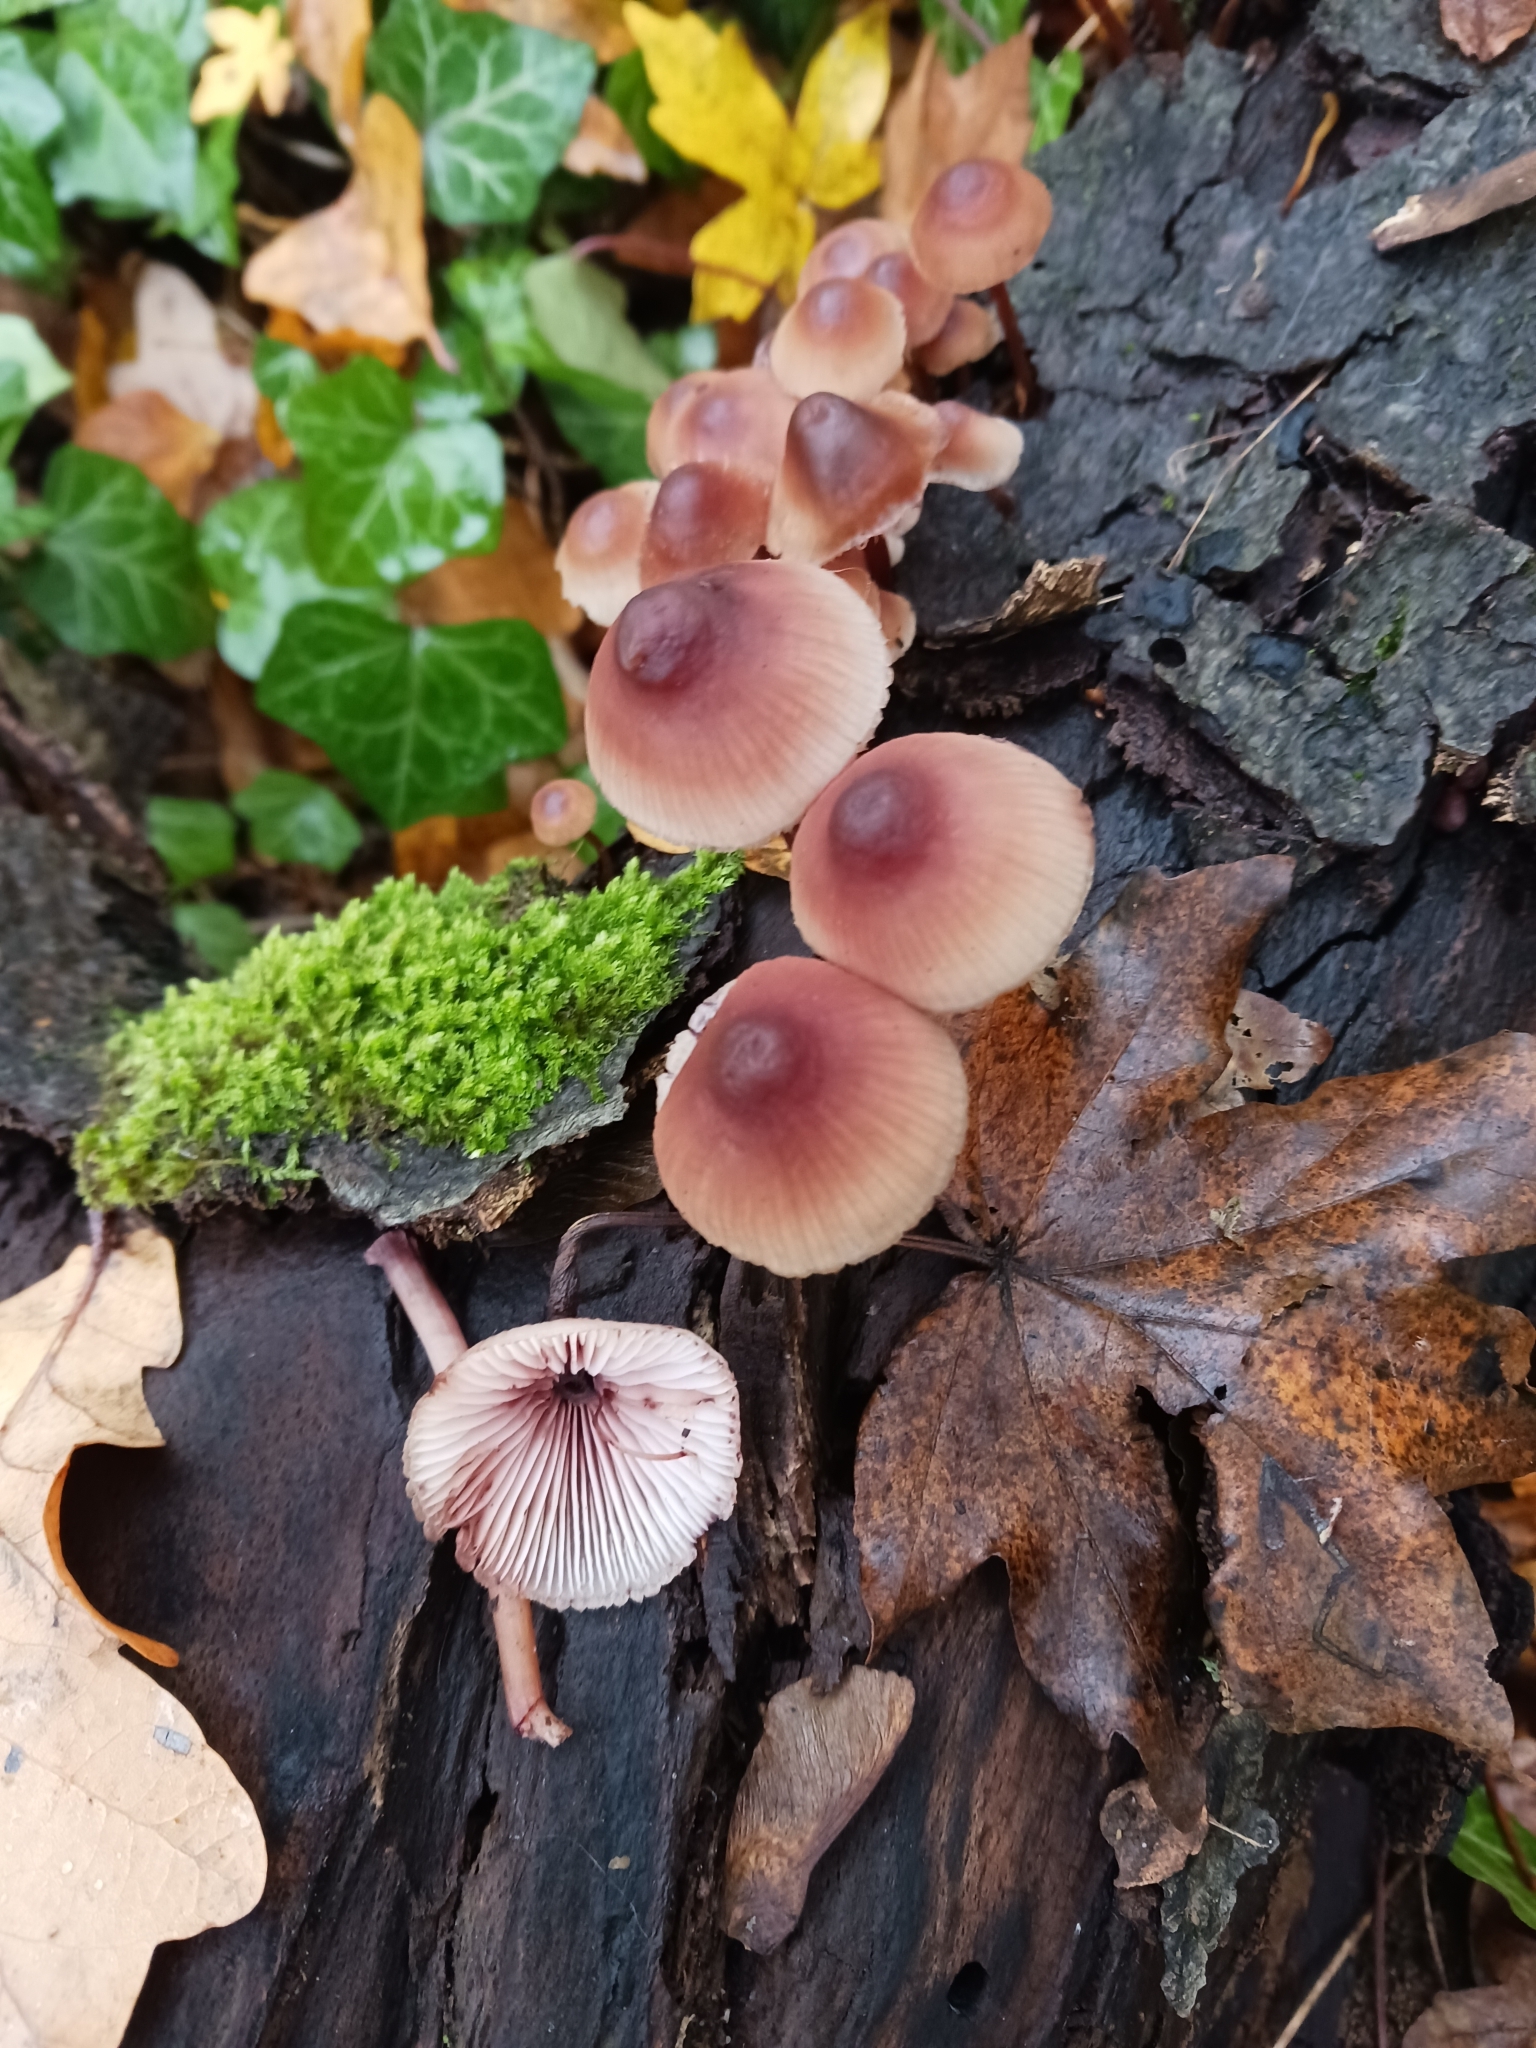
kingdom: Fungi
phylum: Basidiomycota
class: Agaricomycetes
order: Agaricales
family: Mycenaceae
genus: Mycena
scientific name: Mycena haematopus
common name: Burgundydrop bonnet
